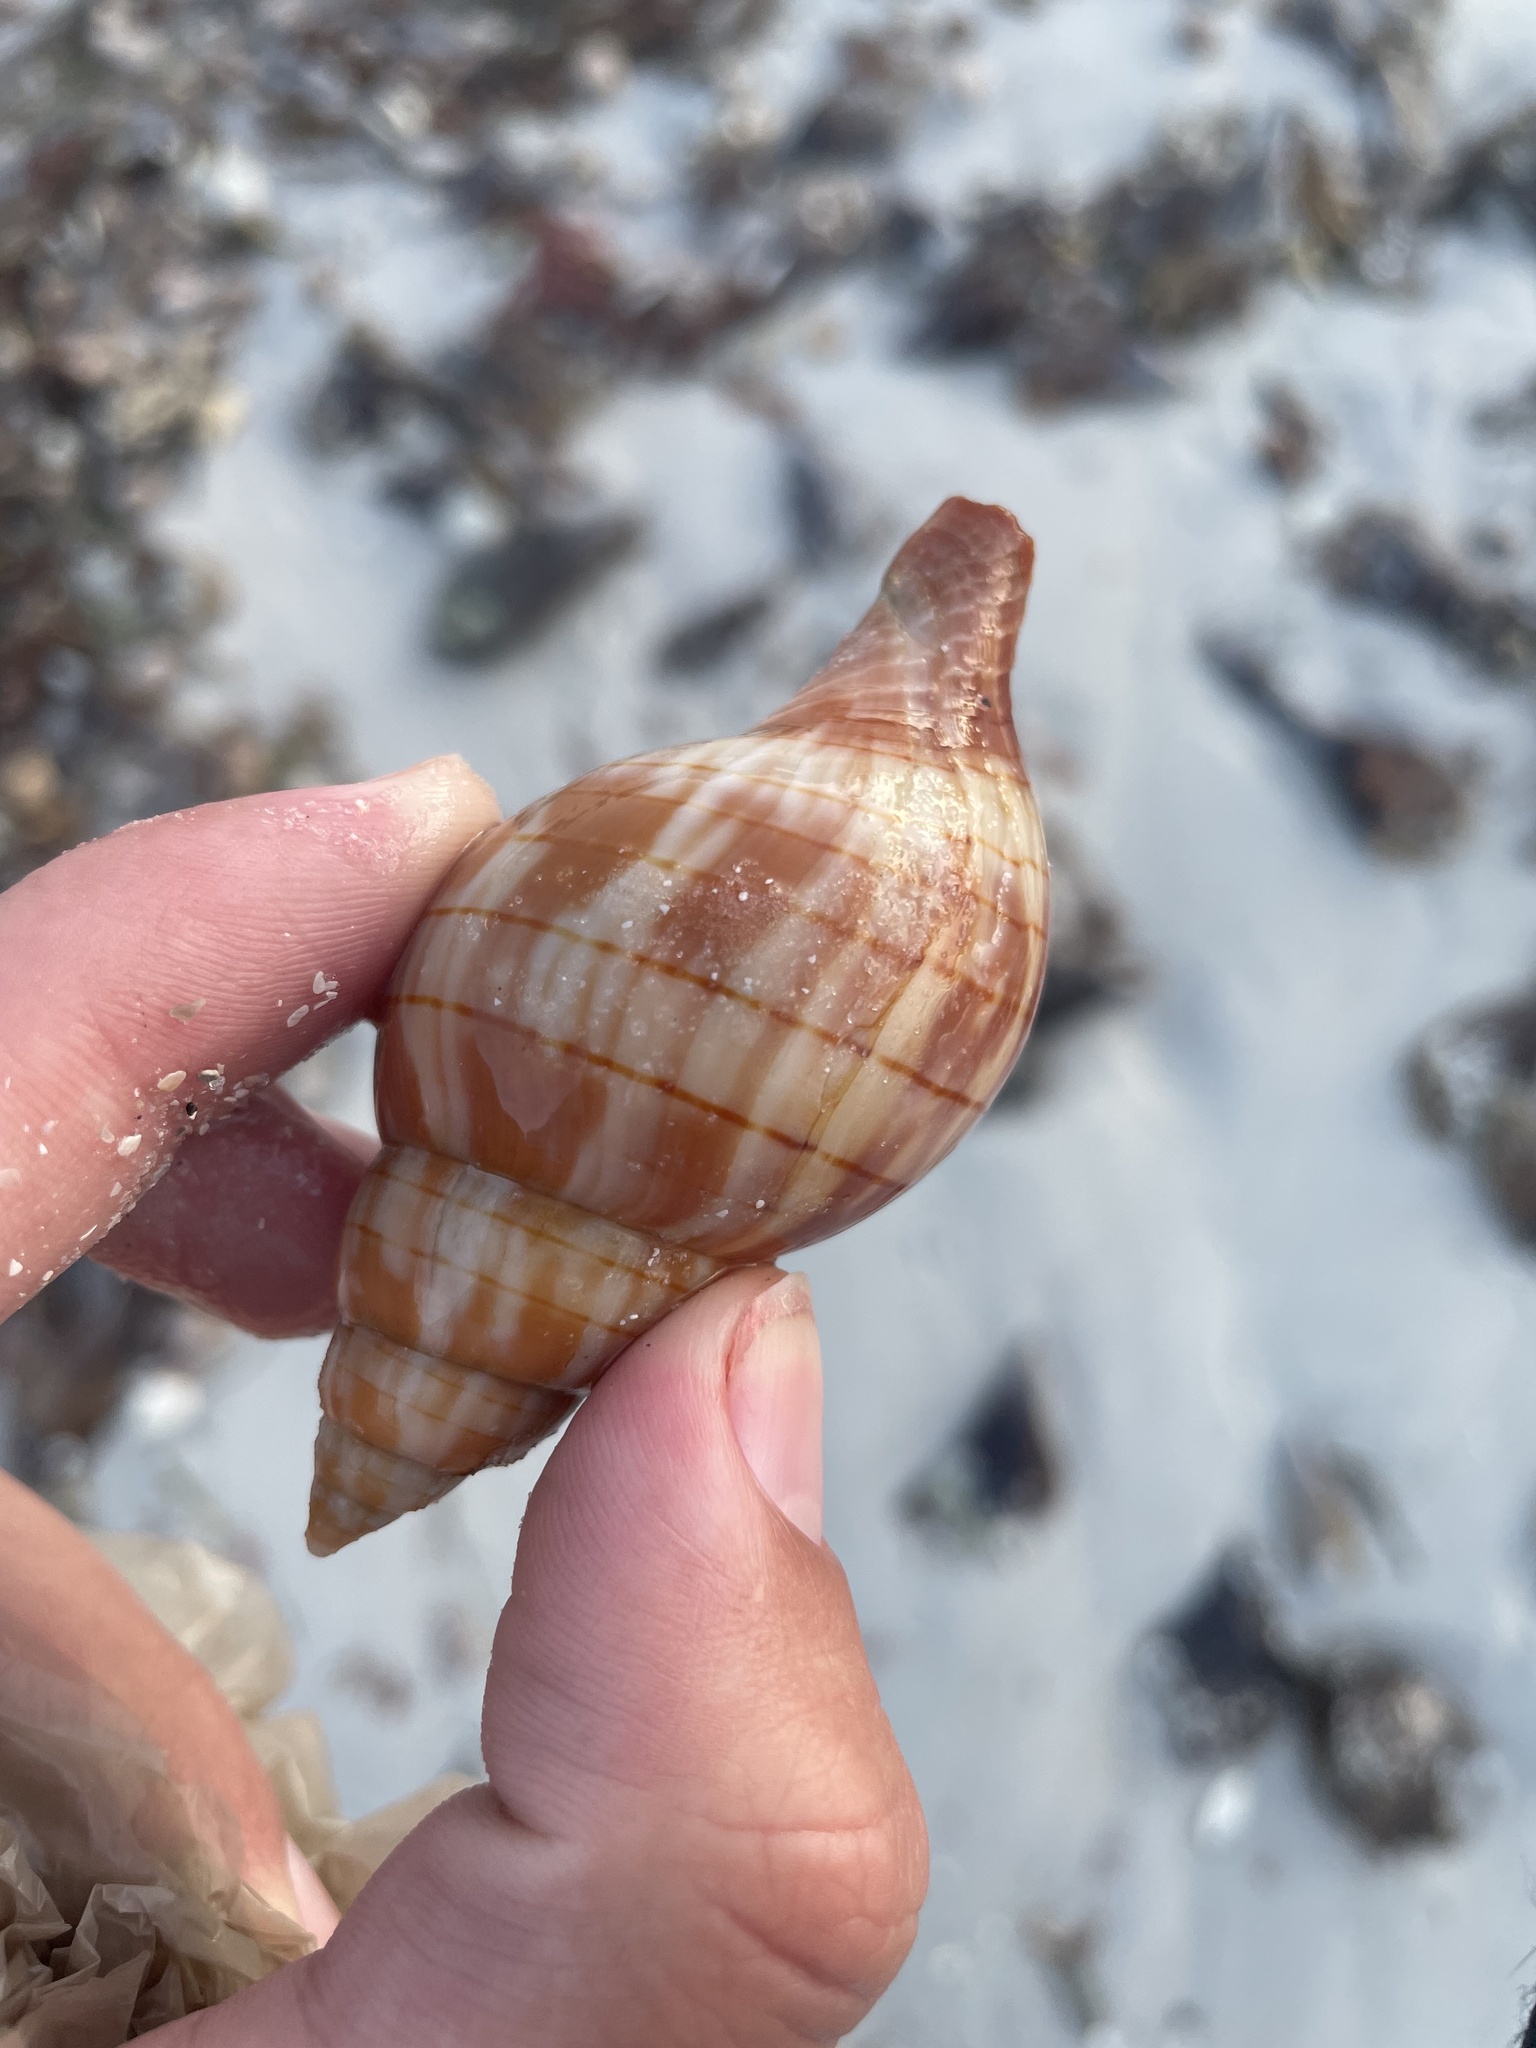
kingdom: Animalia
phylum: Mollusca
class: Gastropoda
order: Neogastropoda
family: Fasciolariidae
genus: Cinctura
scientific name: Cinctura hunteria
